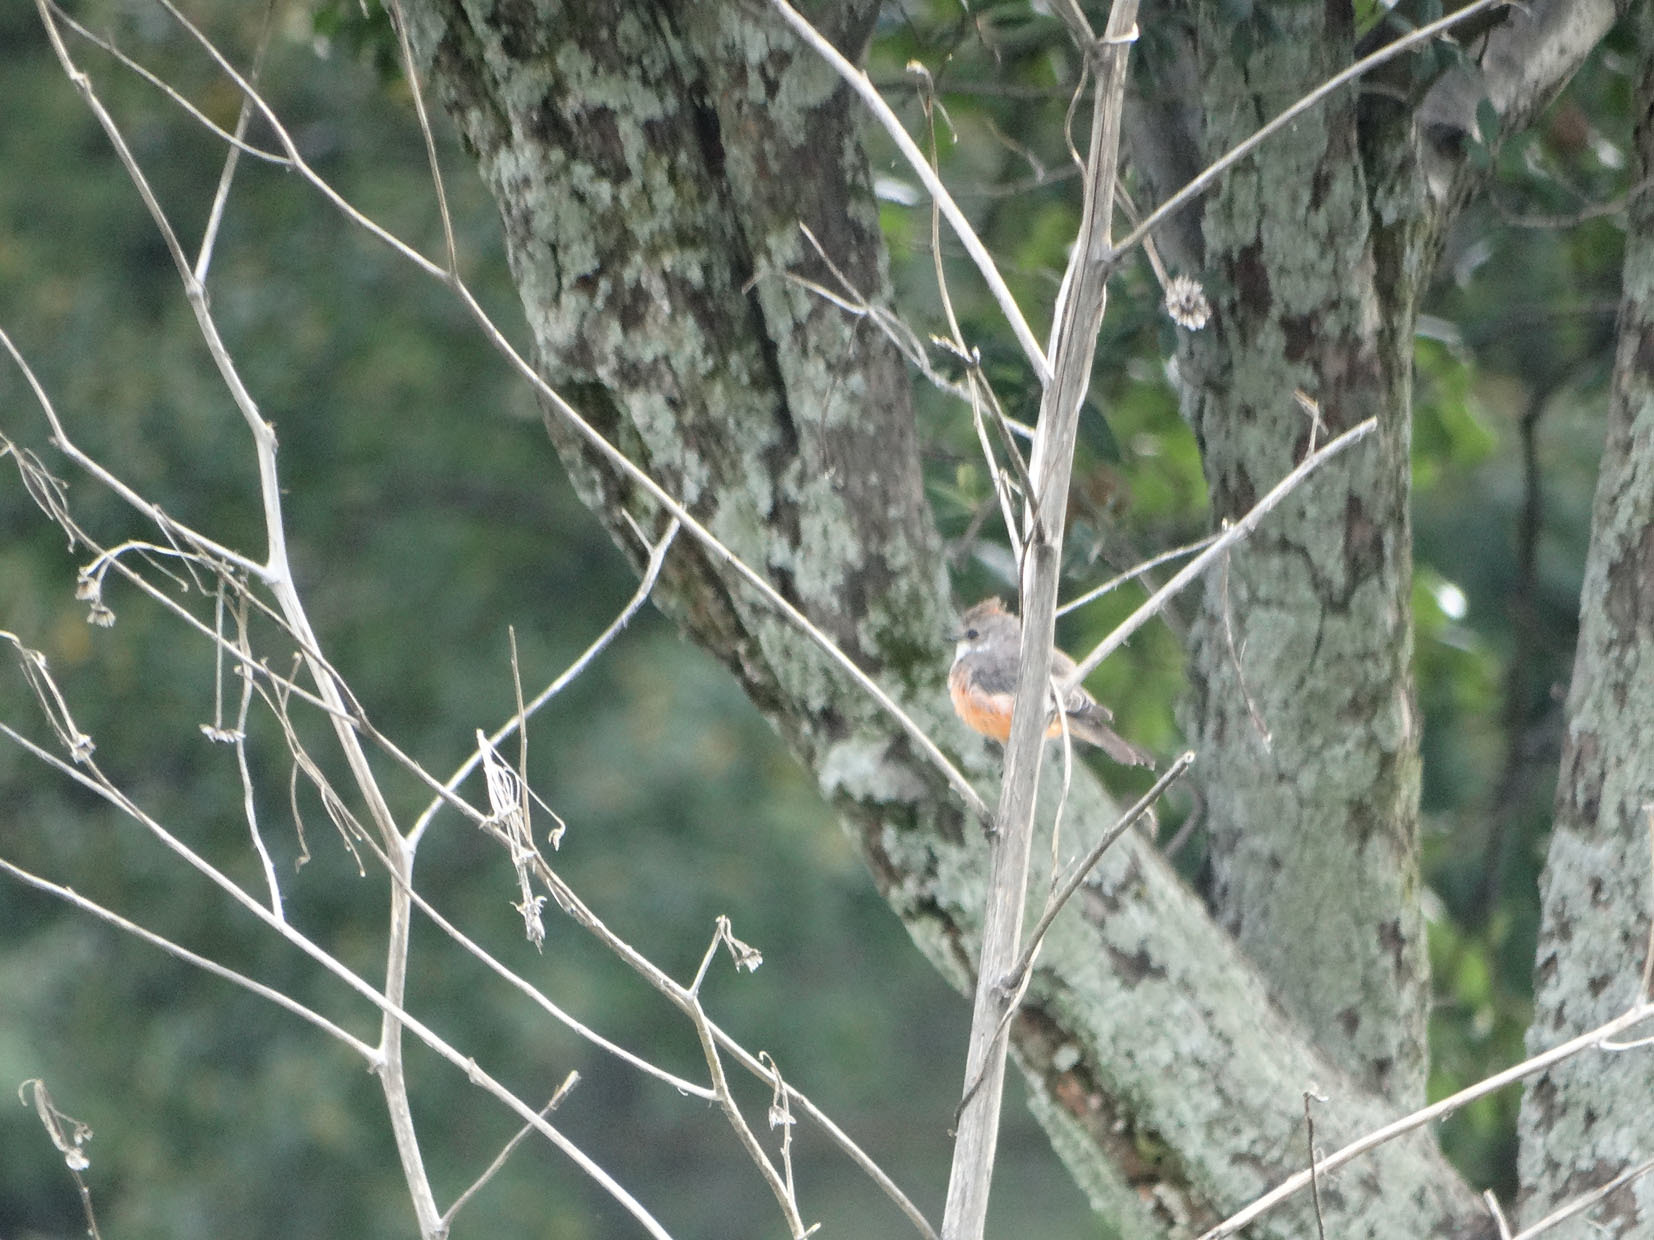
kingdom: Animalia
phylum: Chordata
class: Aves
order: Passeriformes
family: Tyrannidae
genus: Pyrocephalus
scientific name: Pyrocephalus rubinus
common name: Vermilion flycatcher
